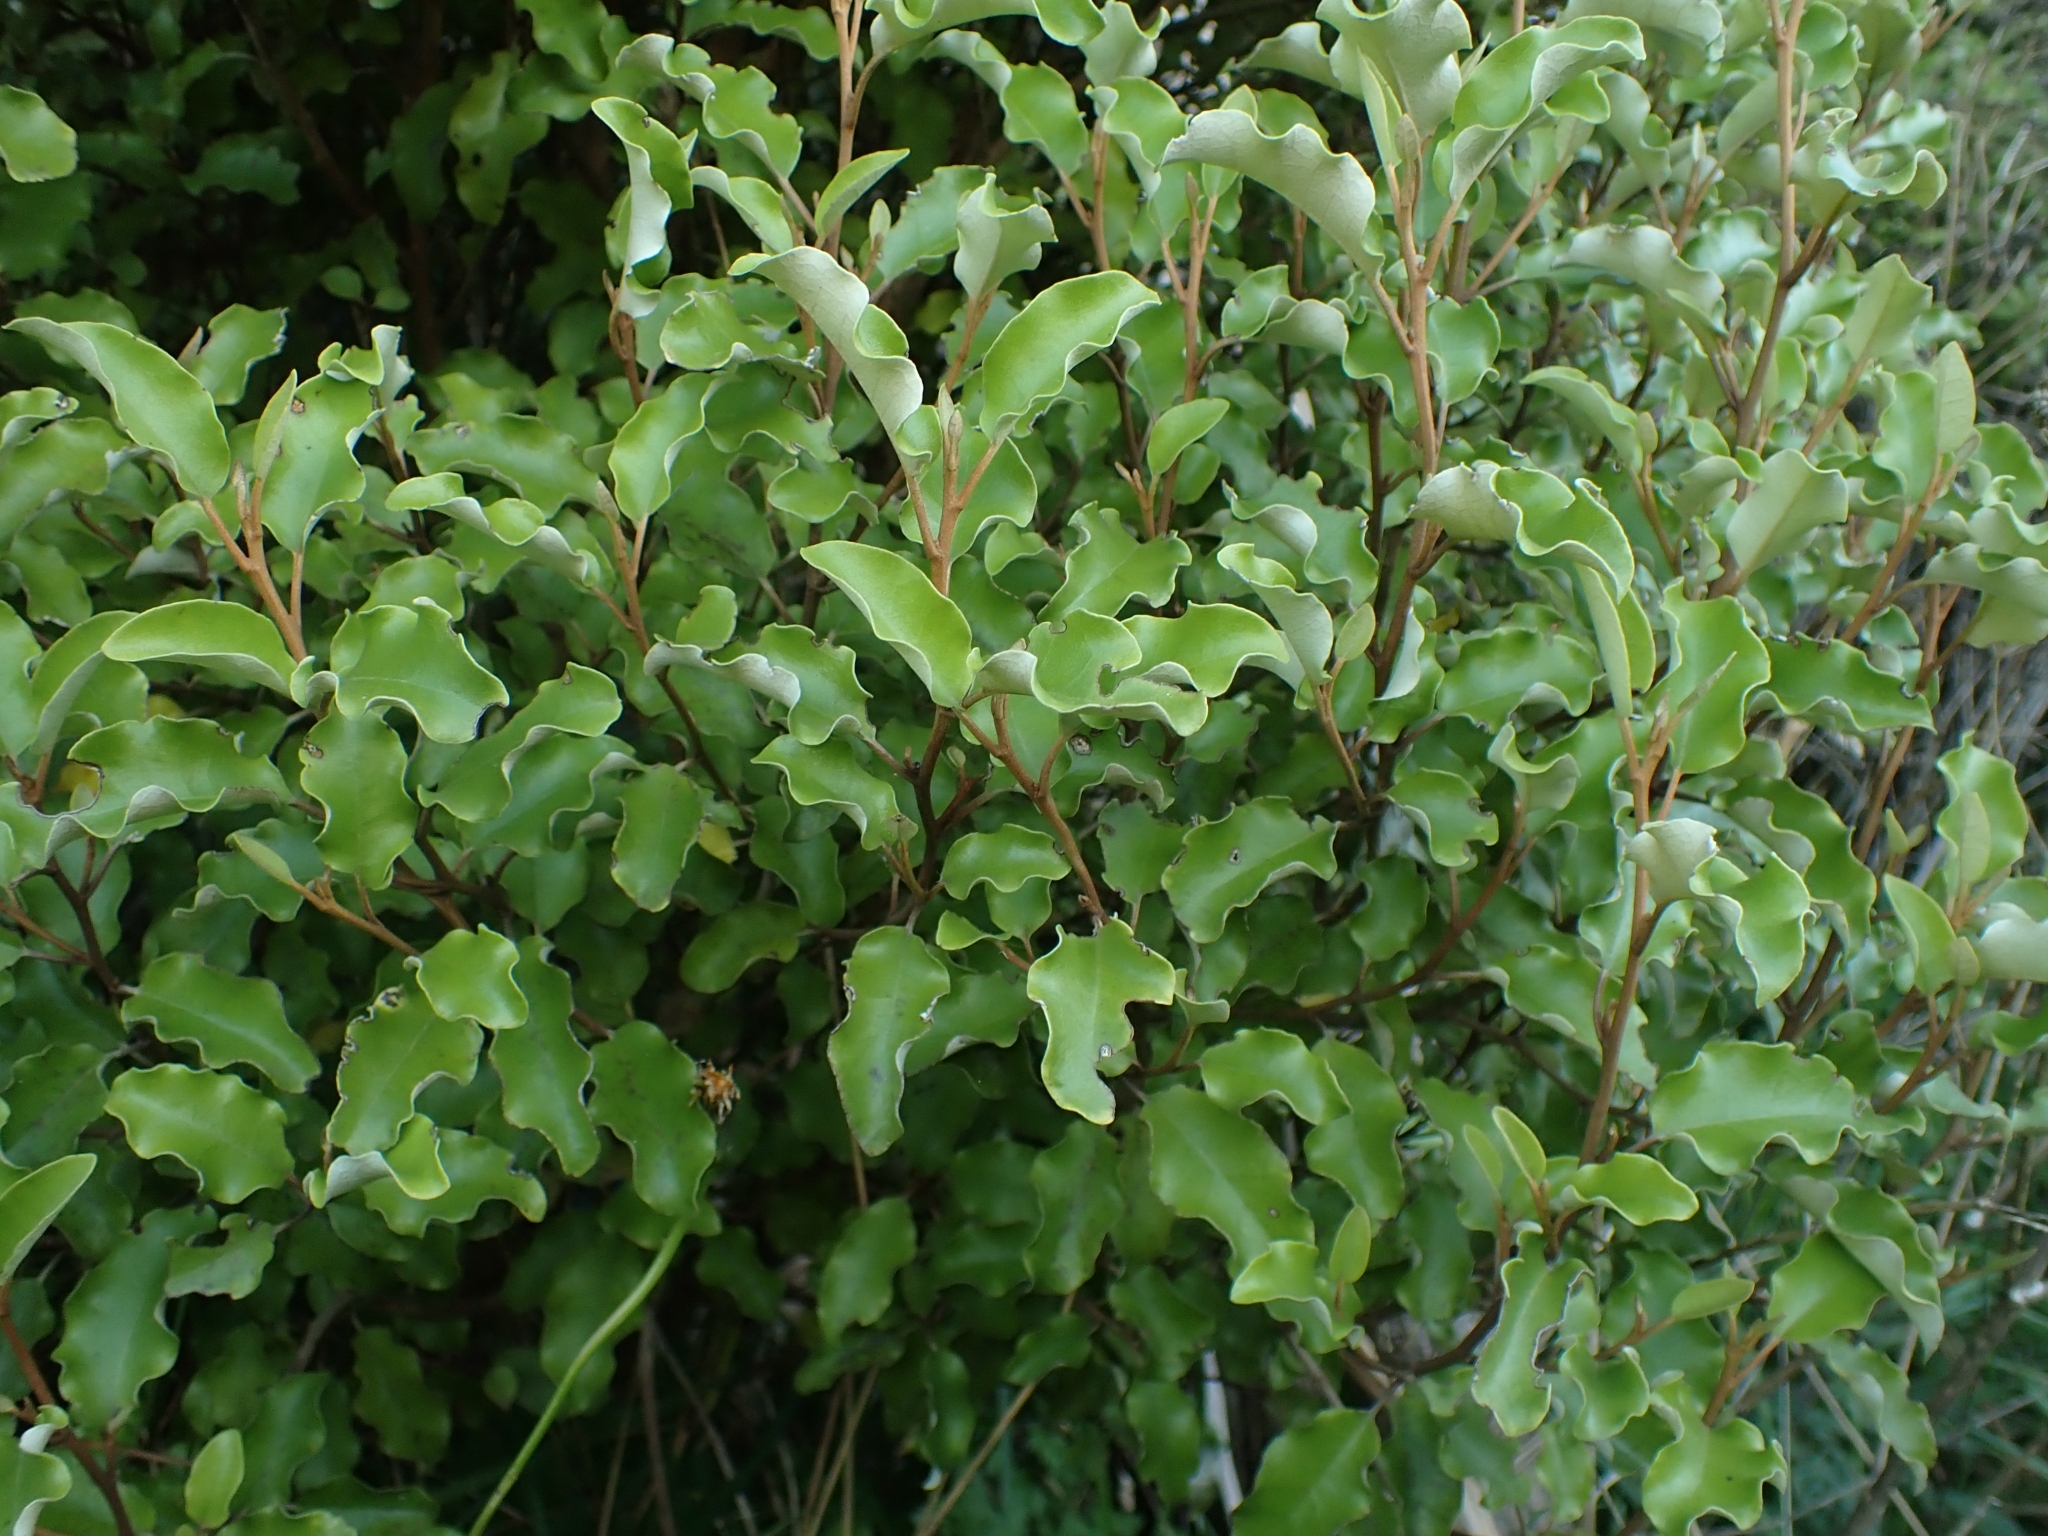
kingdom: Plantae
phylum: Tracheophyta
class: Magnoliopsida
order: Asterales
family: Asteraceae
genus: Olearia
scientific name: Olearia paniculata
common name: Akiraho
